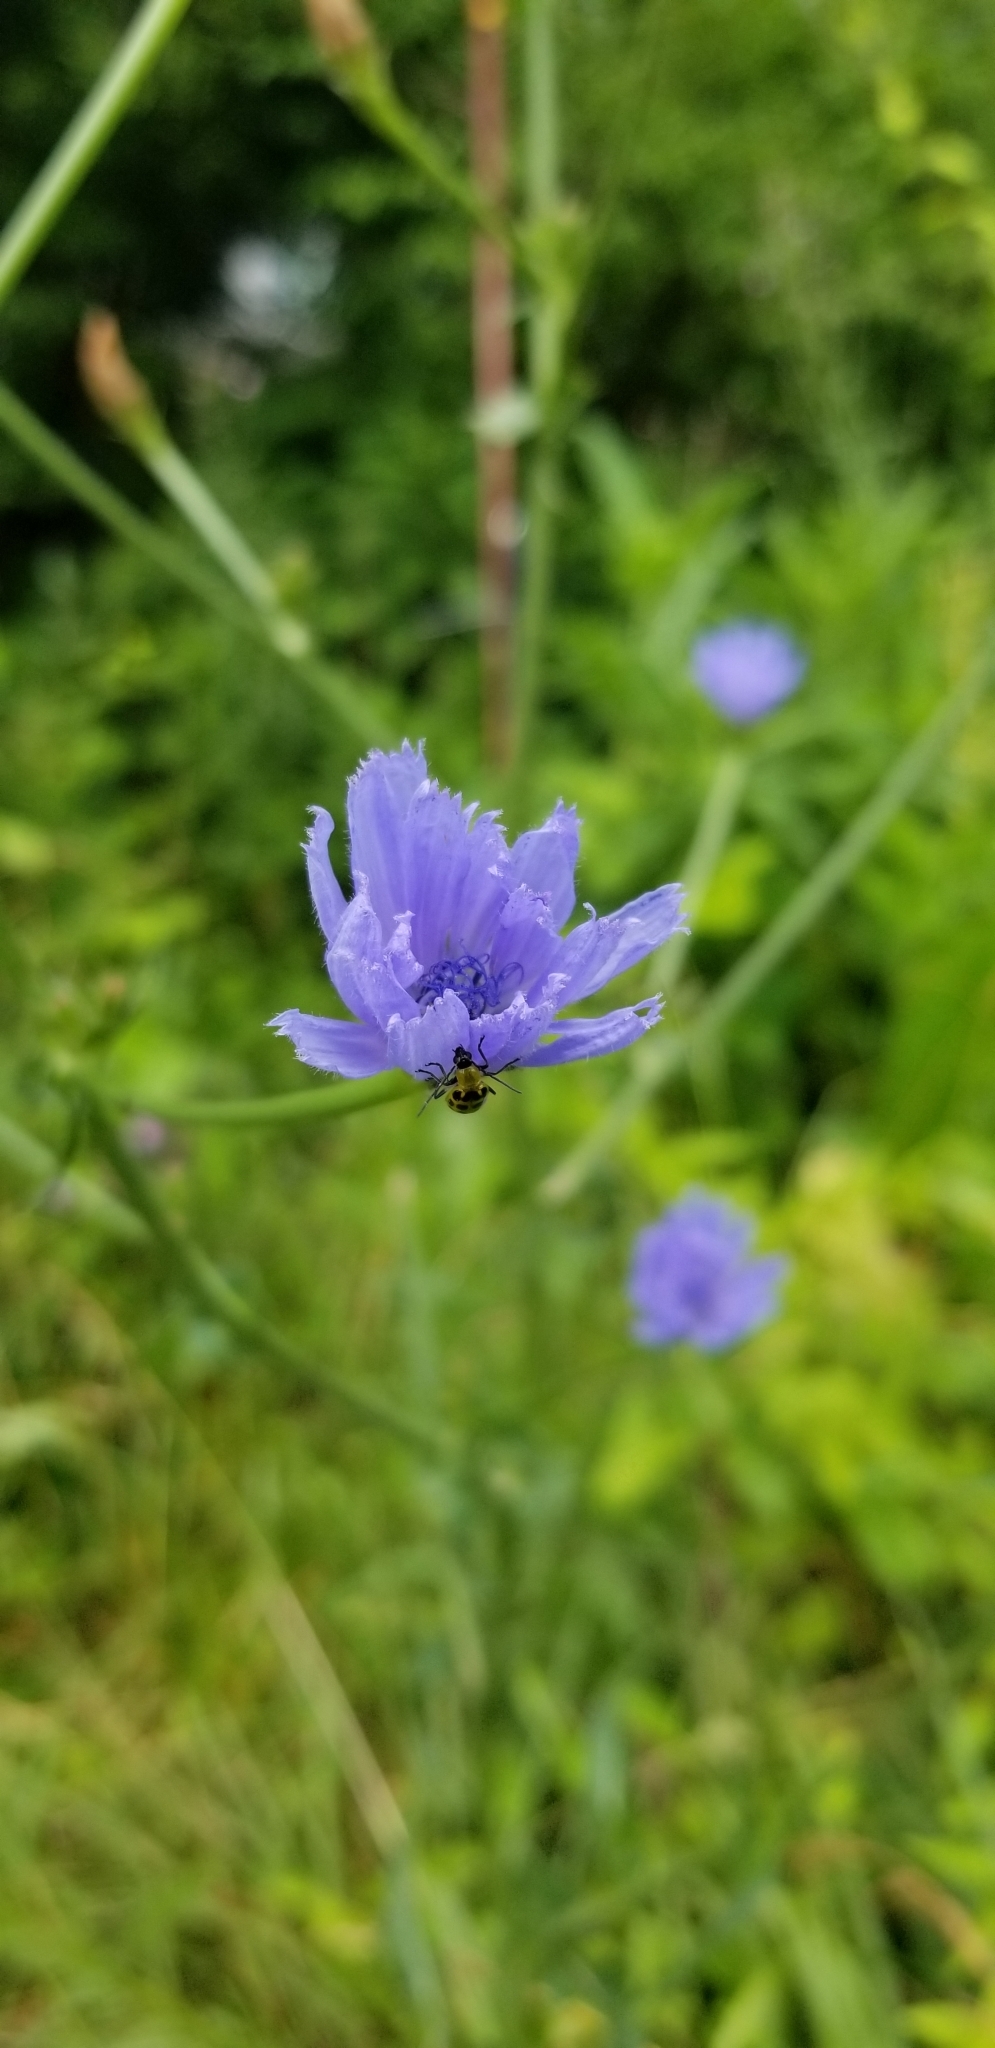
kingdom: Animalia
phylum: Arthropoda
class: Insecta
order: Coleoptera
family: Chrysomelidae
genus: Diabrotica
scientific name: Diabrotica undecimpunctata
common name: Spotted cucumber beetle
